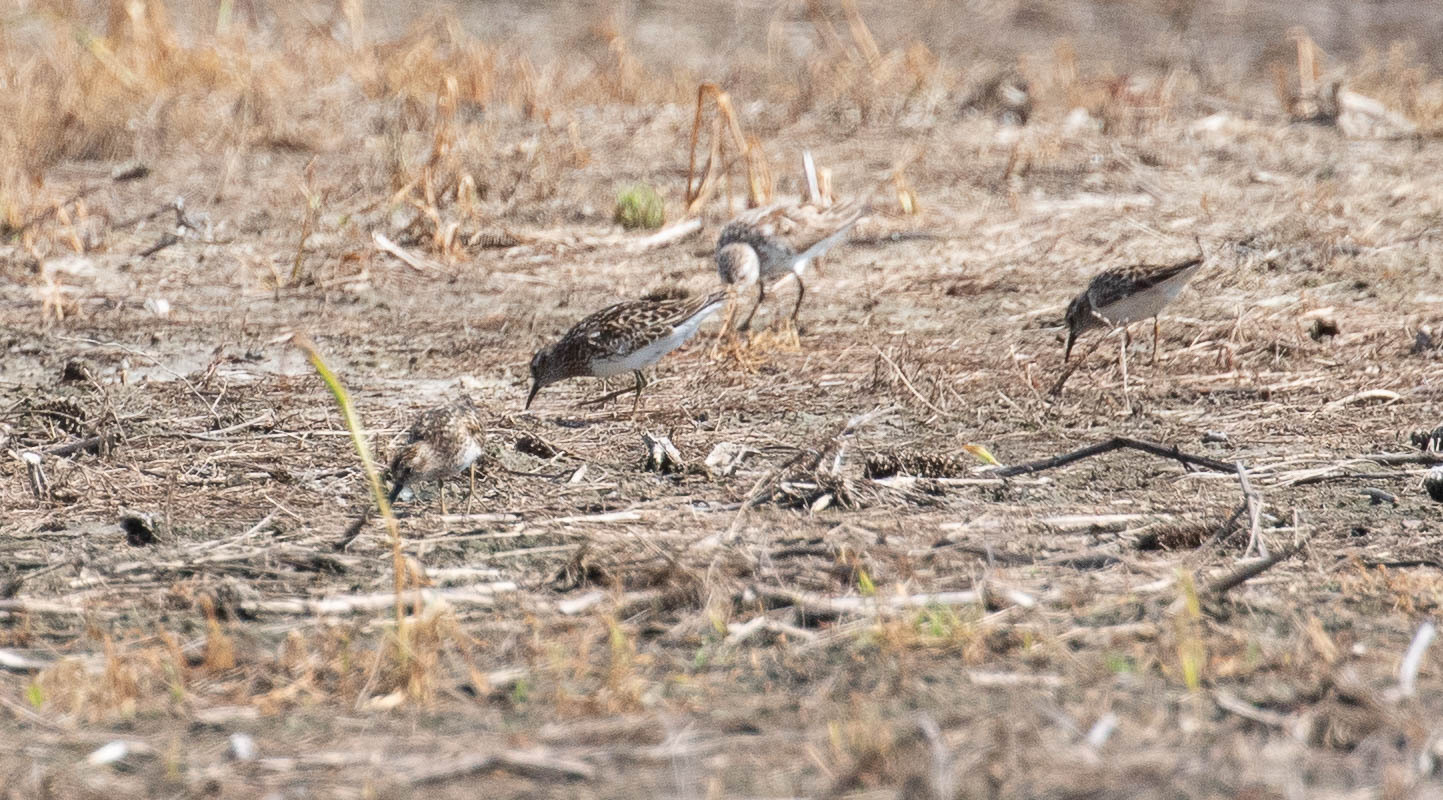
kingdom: Animalia
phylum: Chordata
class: Aves
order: Charadriiformes
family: Scolopacidae
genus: Calidris
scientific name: Calidris minutilla
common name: Least sandpiper
